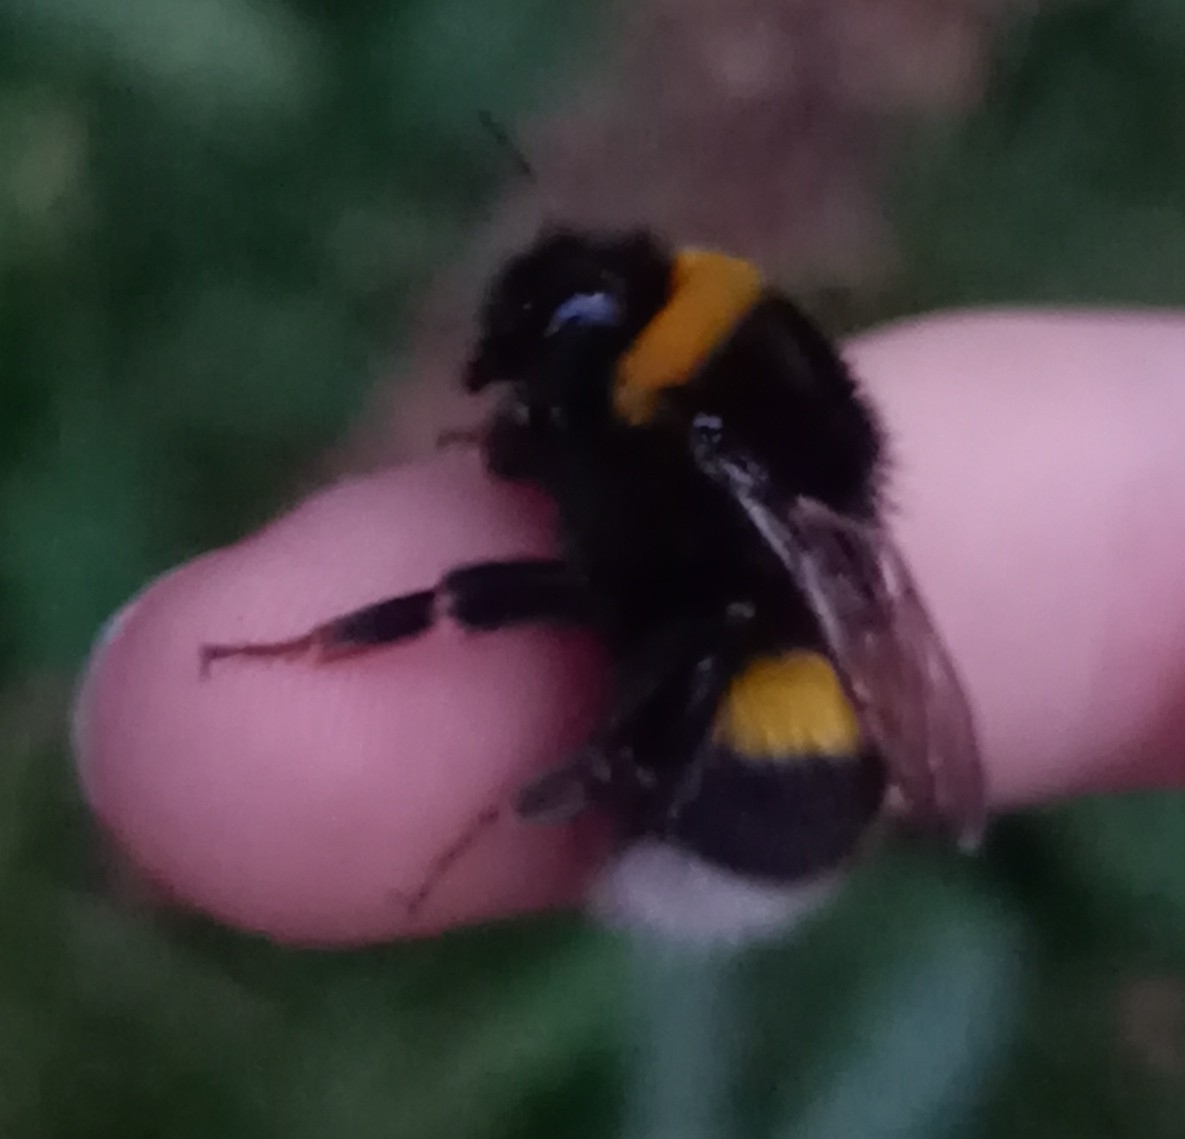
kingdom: Animalia
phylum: Arthropoda
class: Insecta
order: Hymenoptera
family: Apidae
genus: Bombus
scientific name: Bombus
